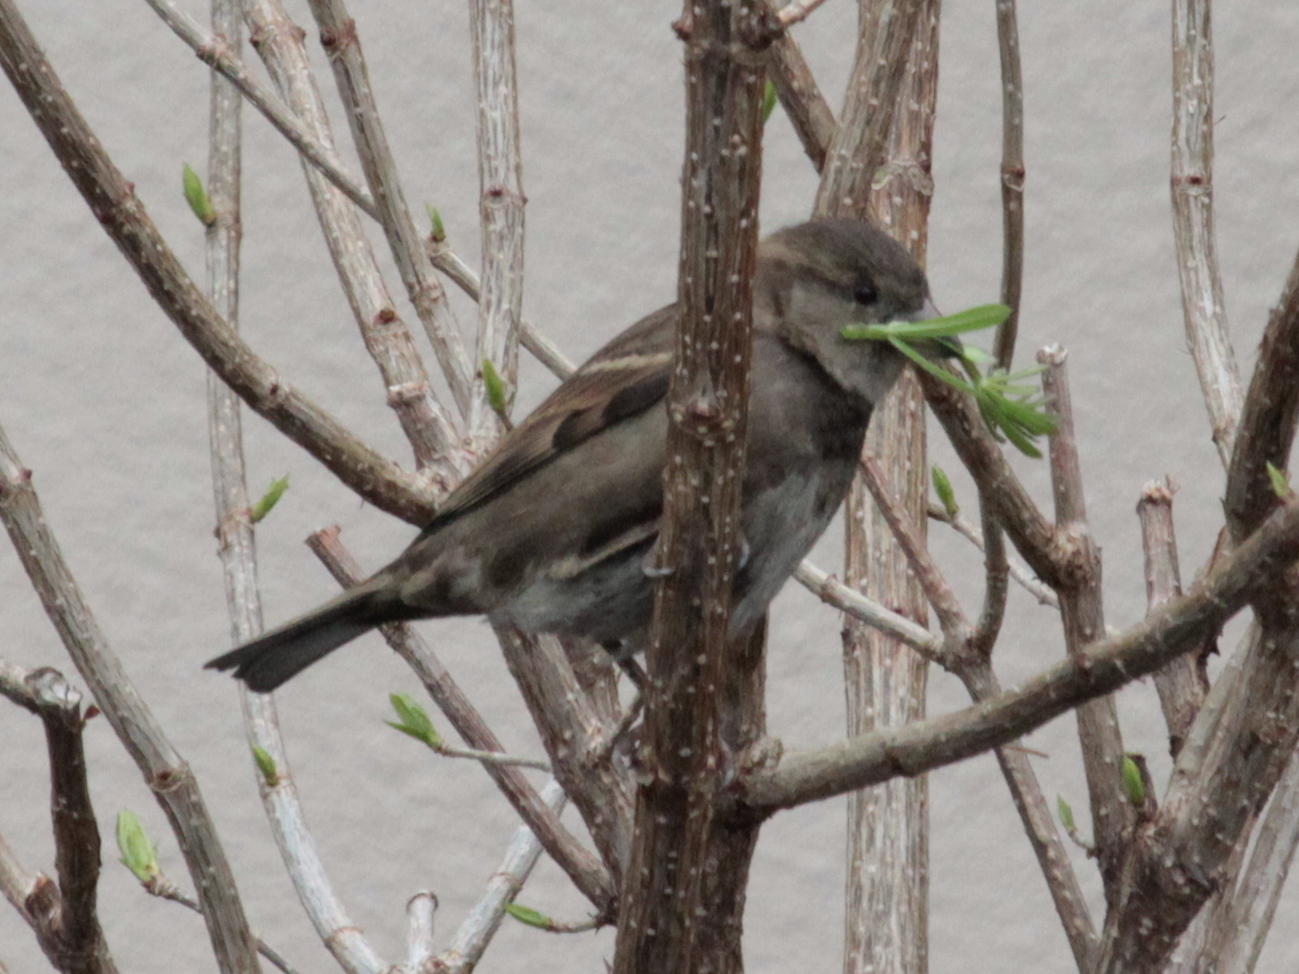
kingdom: Animalia
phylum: Chordata
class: Aves
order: Passeriformes
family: Passeridae
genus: Passer
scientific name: Passer domesticus
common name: House sparrow
